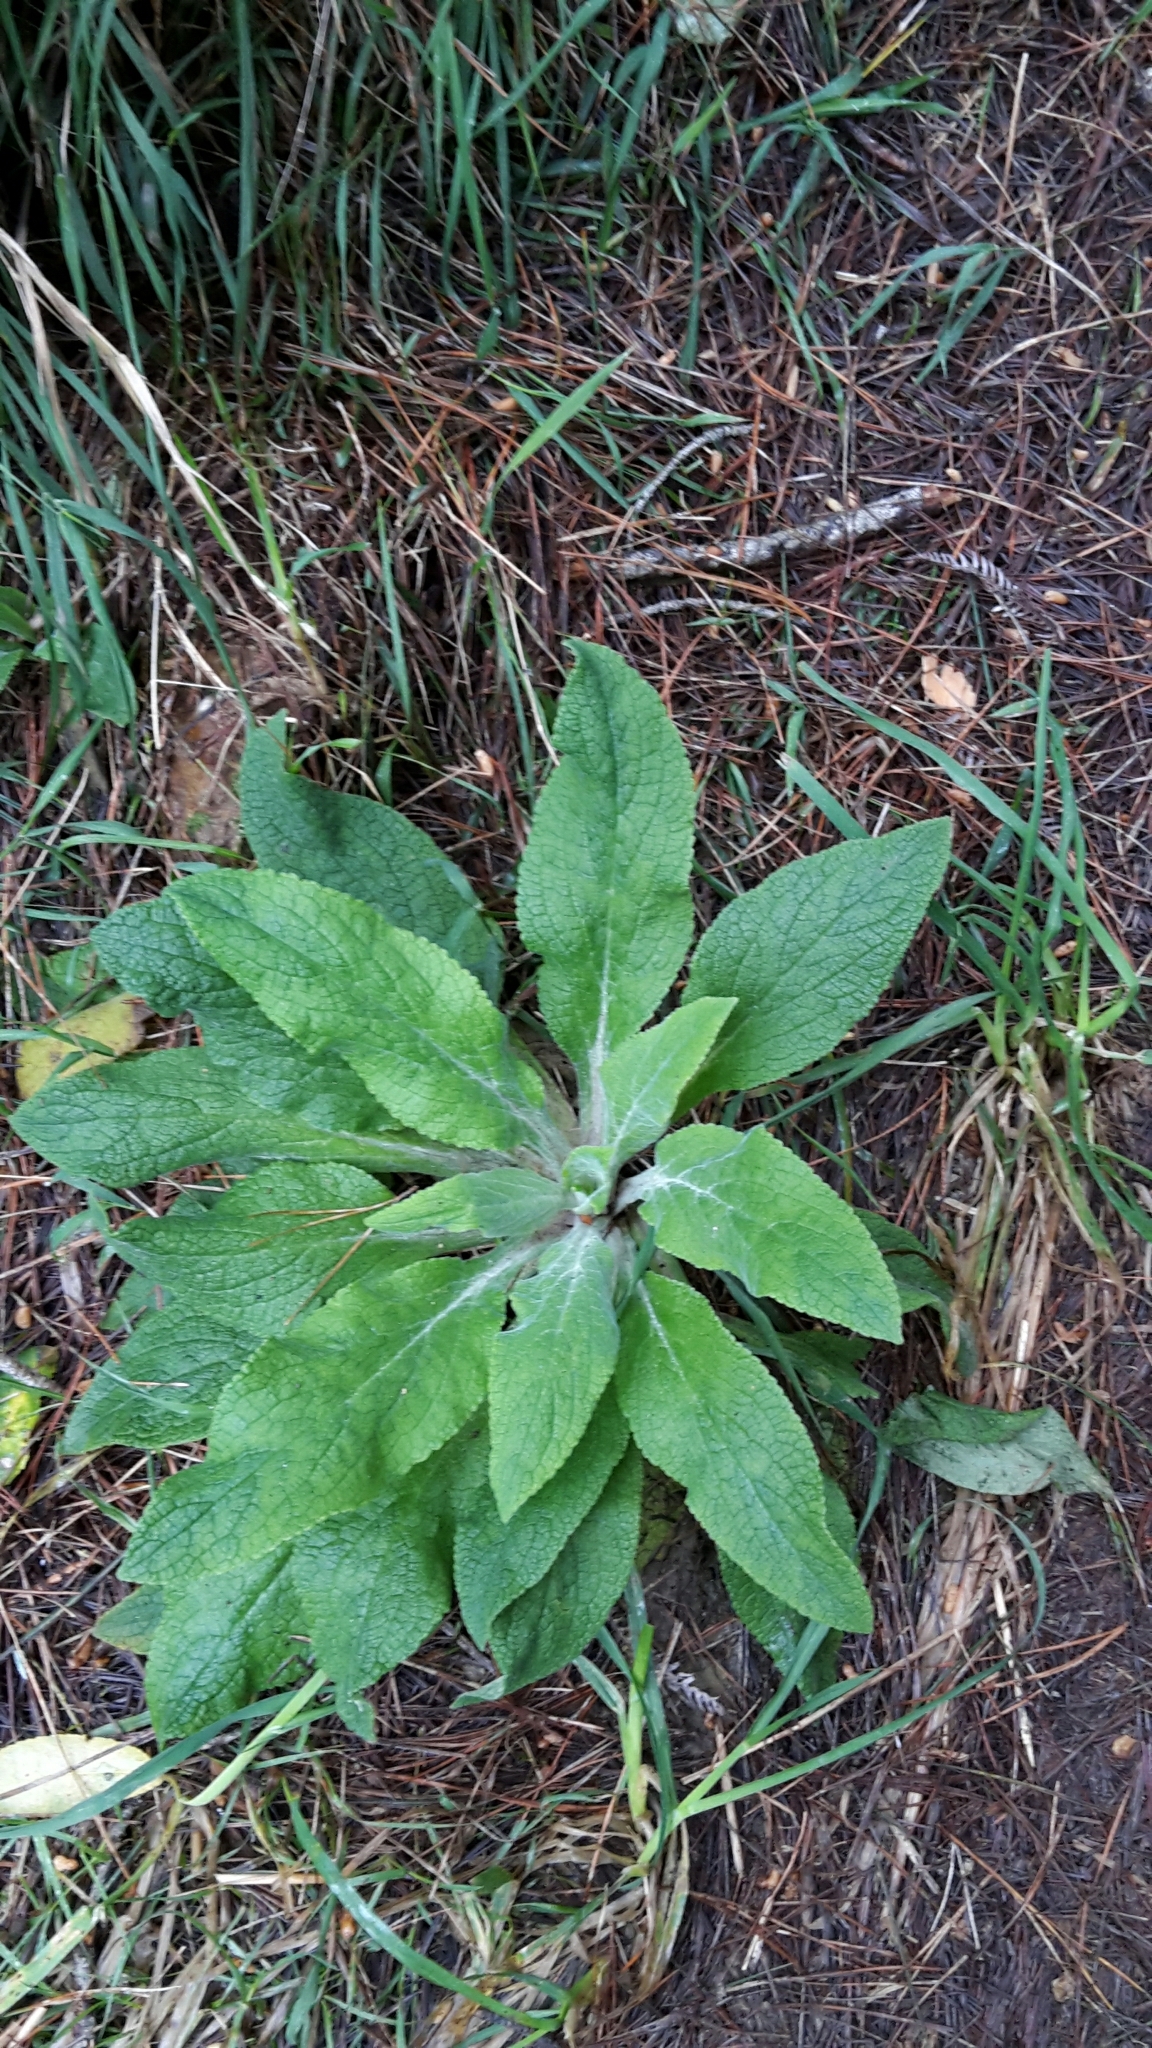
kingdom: Plantae
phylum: Tracheophyta
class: Magnoliopsida
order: Lamiales
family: Plantaginaceae
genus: Digitalis
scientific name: Digitalis purpurea
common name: Foxglove
